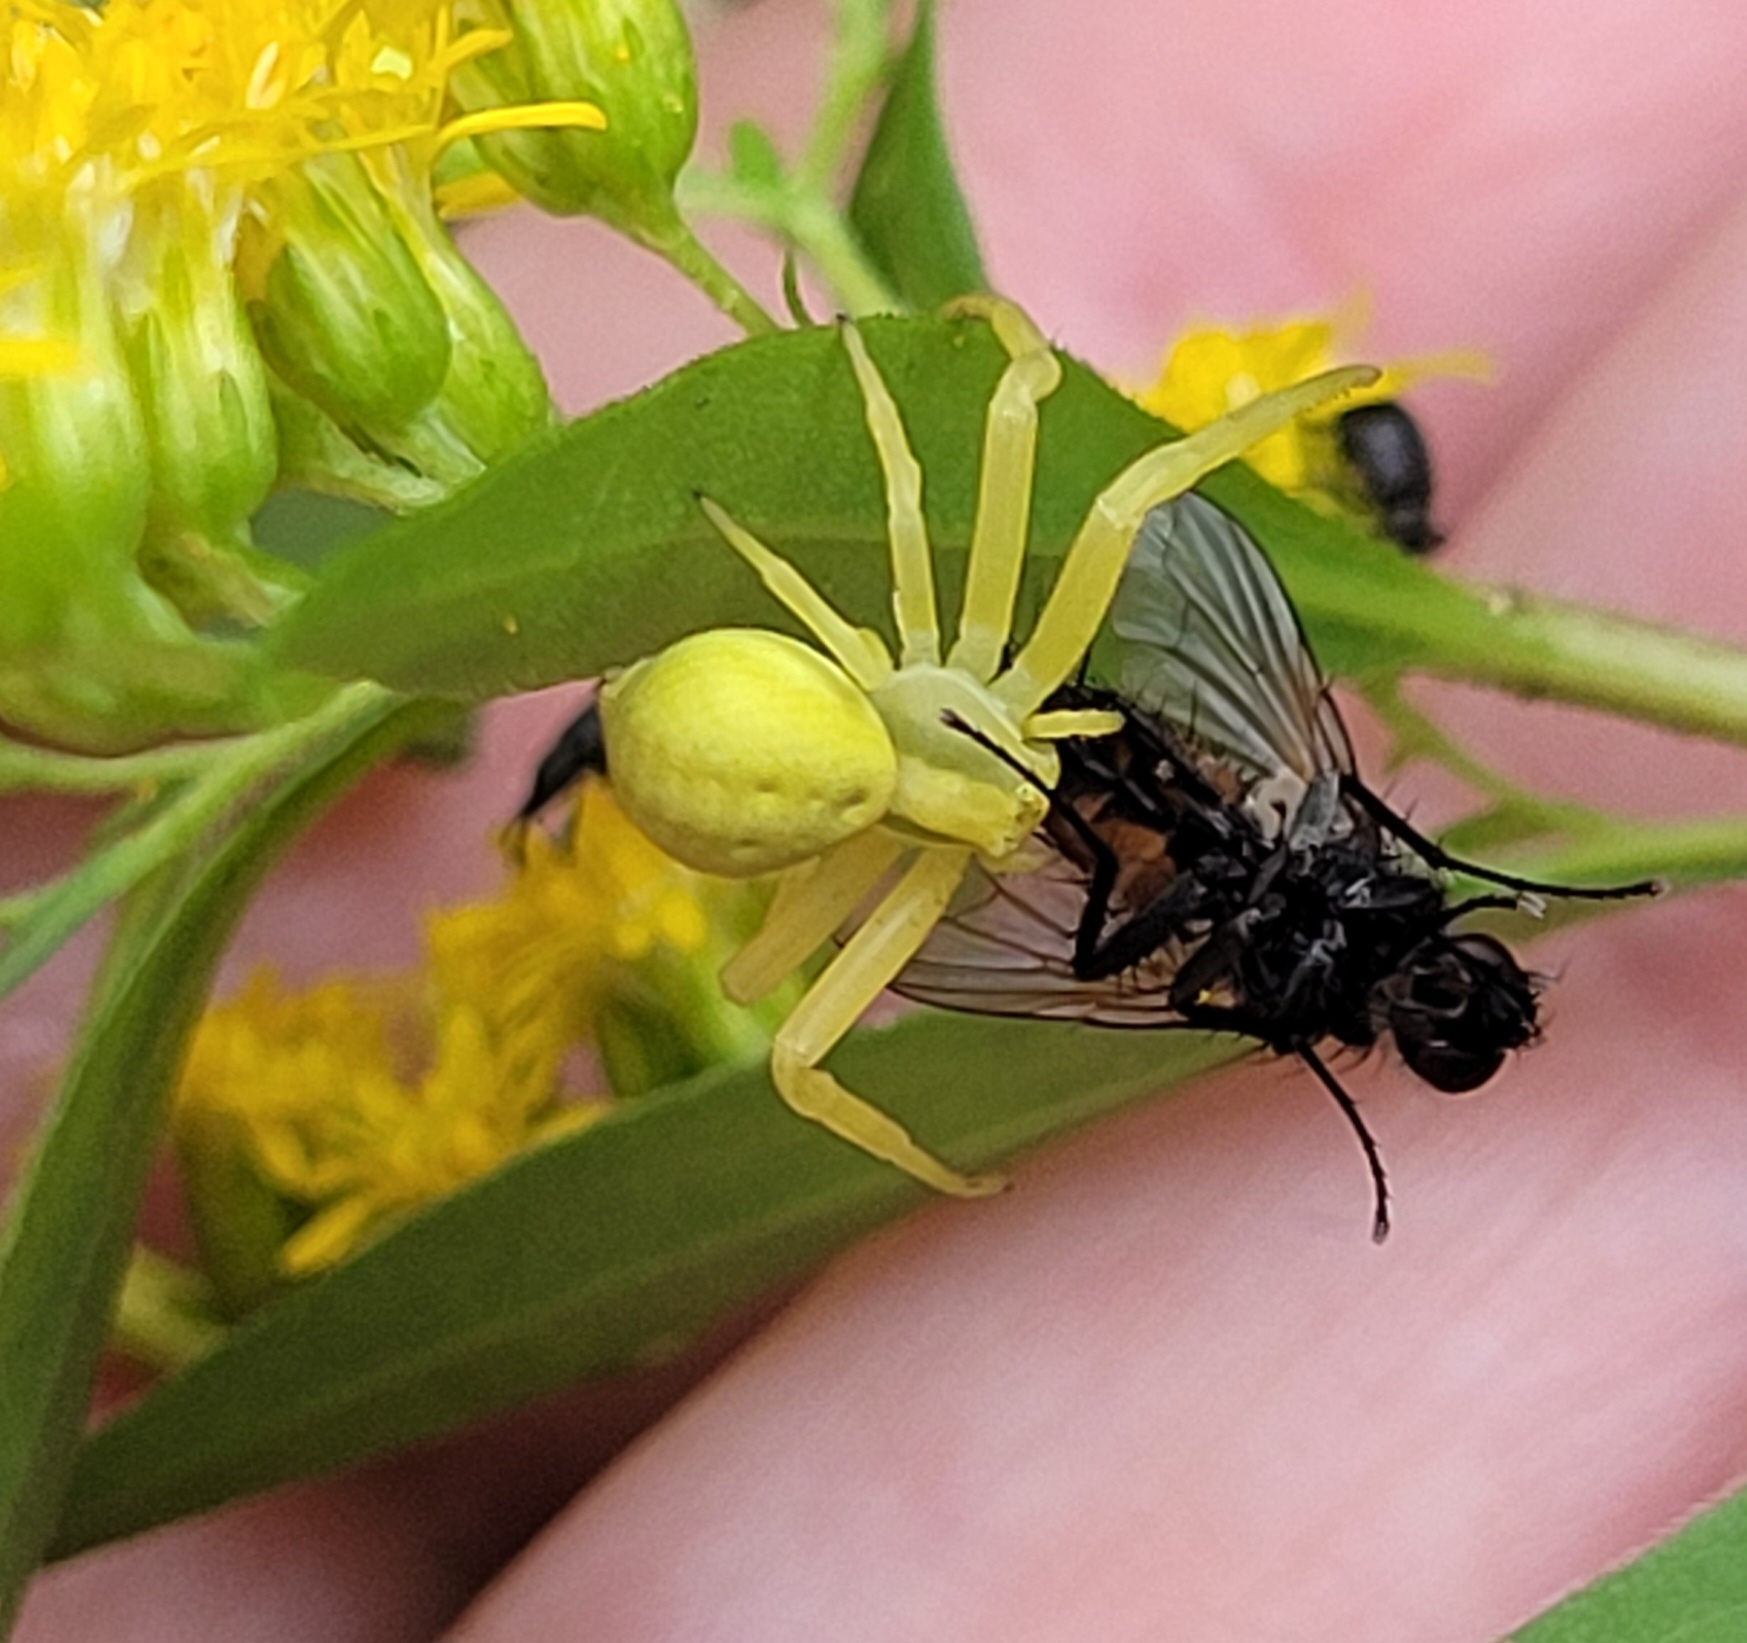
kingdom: Animalia
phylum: Arthropoda
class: Arachnida
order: Araneae
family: Thomisidae
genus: Misumena
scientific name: Misumena vatia
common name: Goldenrod crab spider
